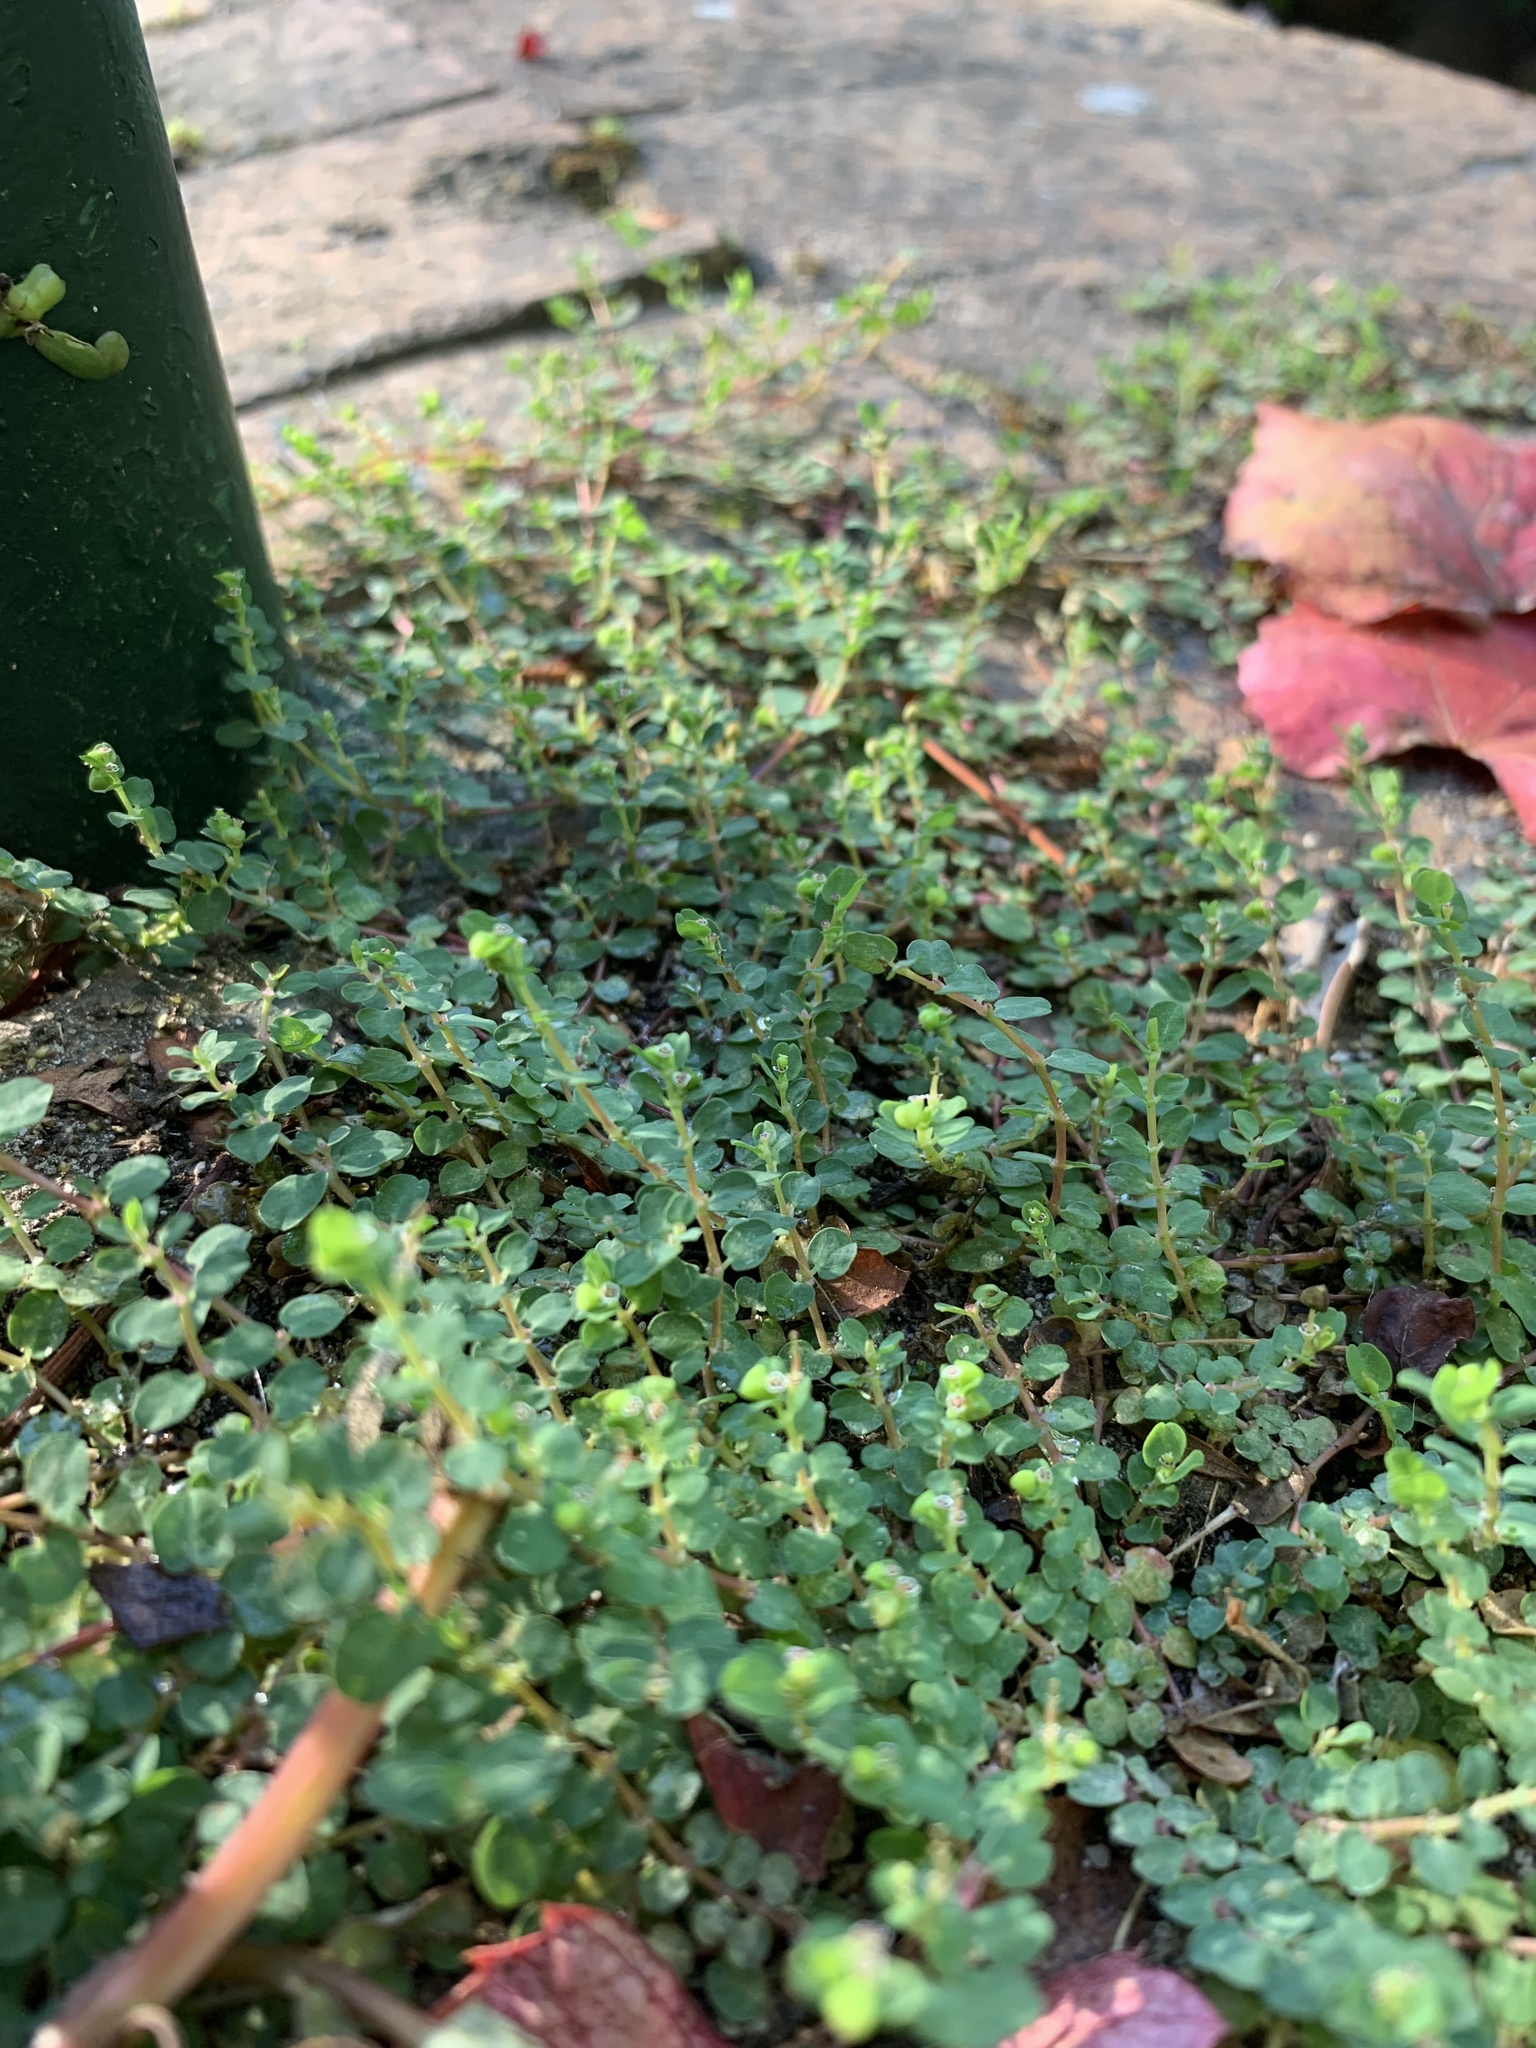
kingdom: Plantae
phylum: Tracheophyta
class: Magnoliopsida
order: Malpighiales
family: Euphorbiaceae
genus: Euphorbia
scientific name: Euphorbia serpens
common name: Matted sandmat
